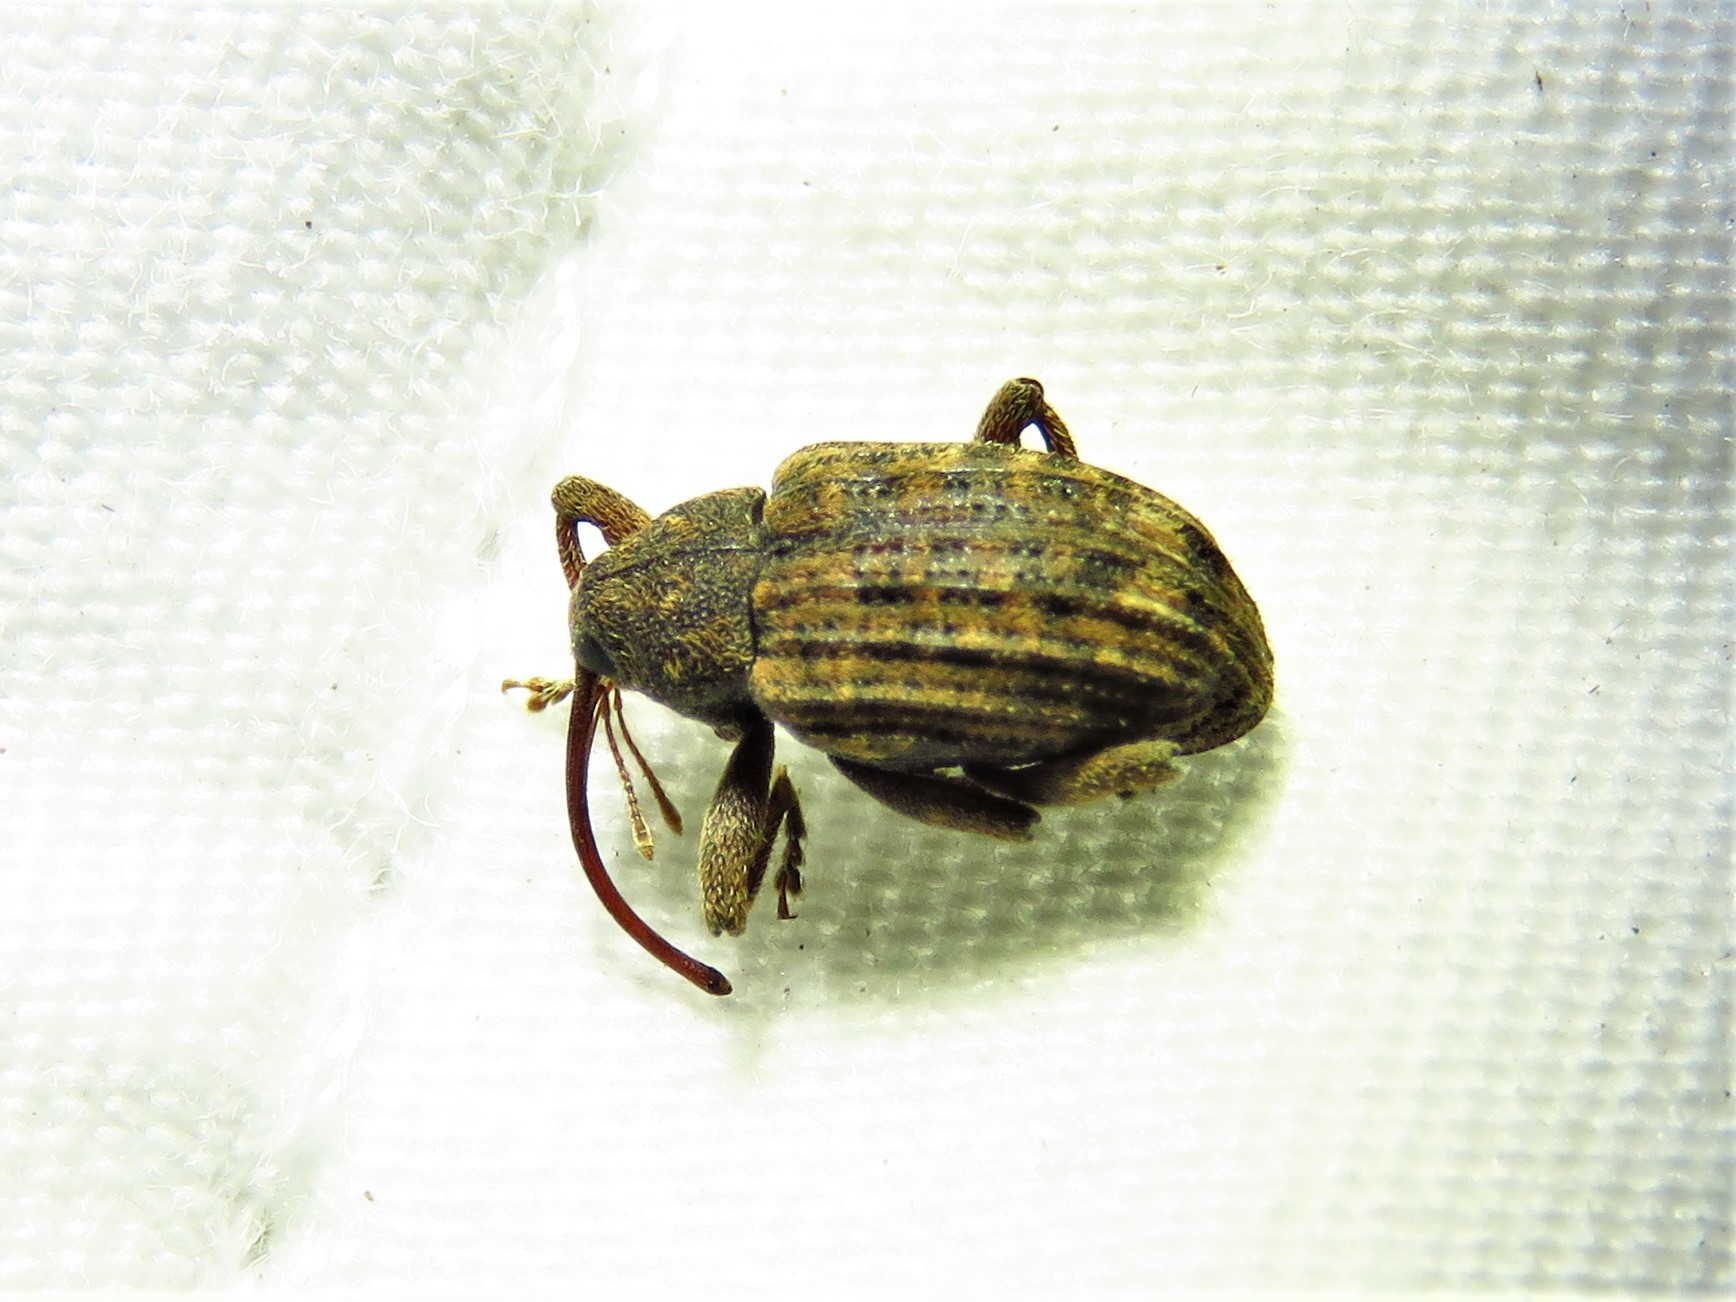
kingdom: Animalia
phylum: Arthropoda
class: Insecta
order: Coleoptera
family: Curculionidae
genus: Conotrachelus
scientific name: Conotrachelus naso
